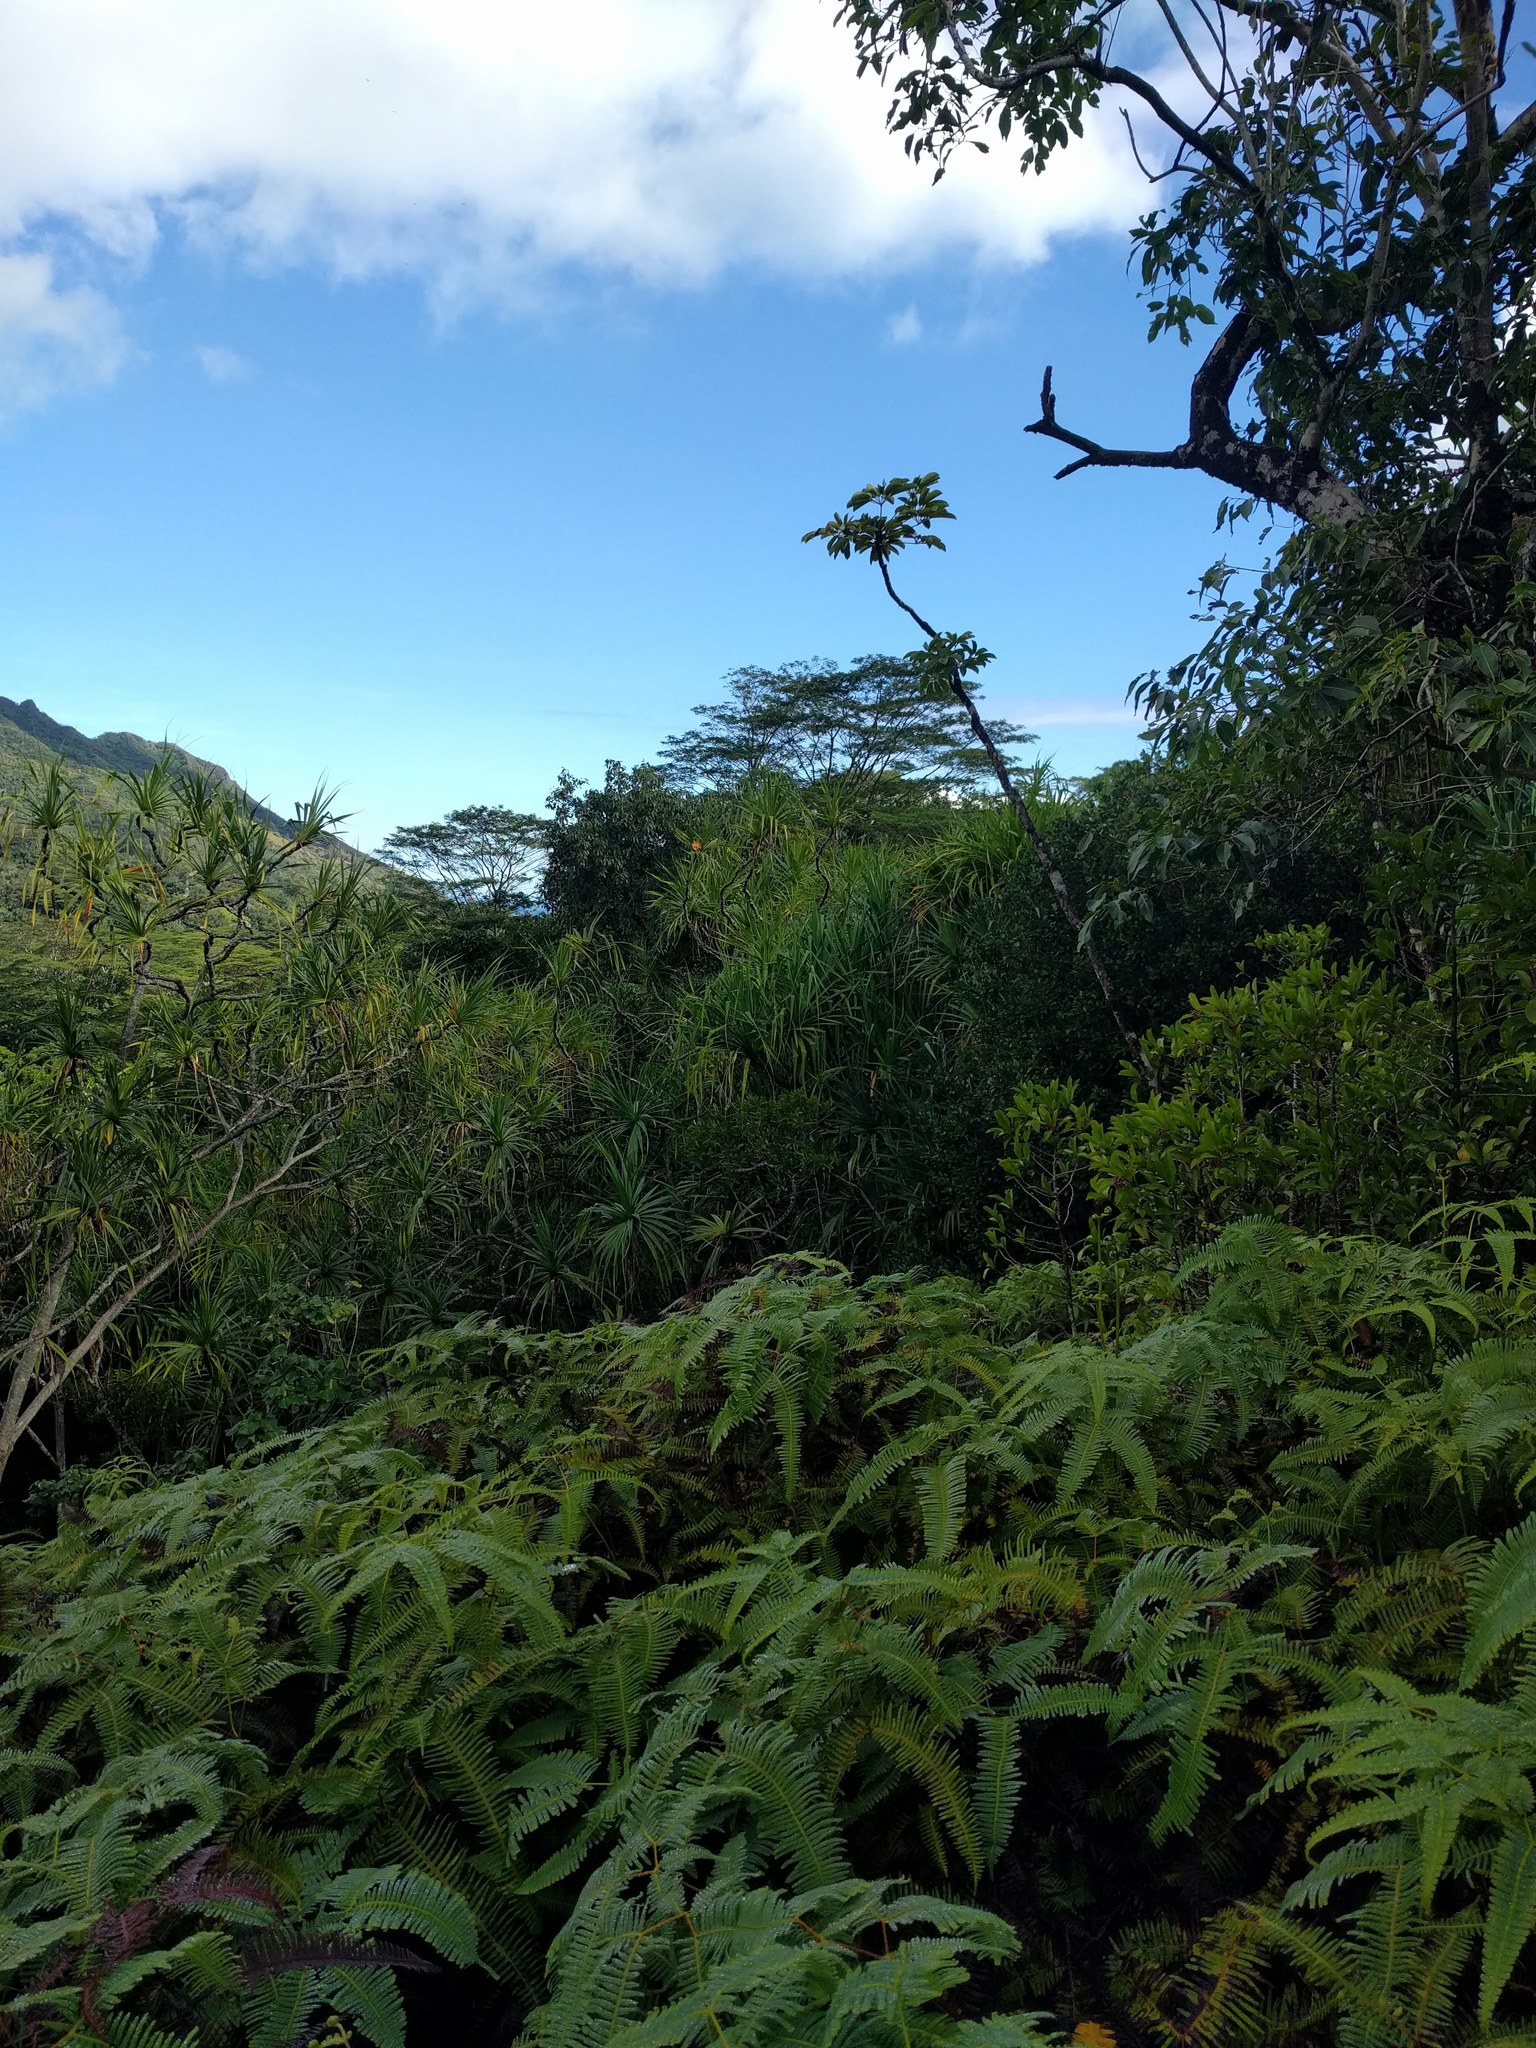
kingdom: Plantae
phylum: Tracheophyta
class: Liliopsida
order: Pandanales
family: Pandanaceae
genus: Pandanus
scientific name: Pandanus tectorius
